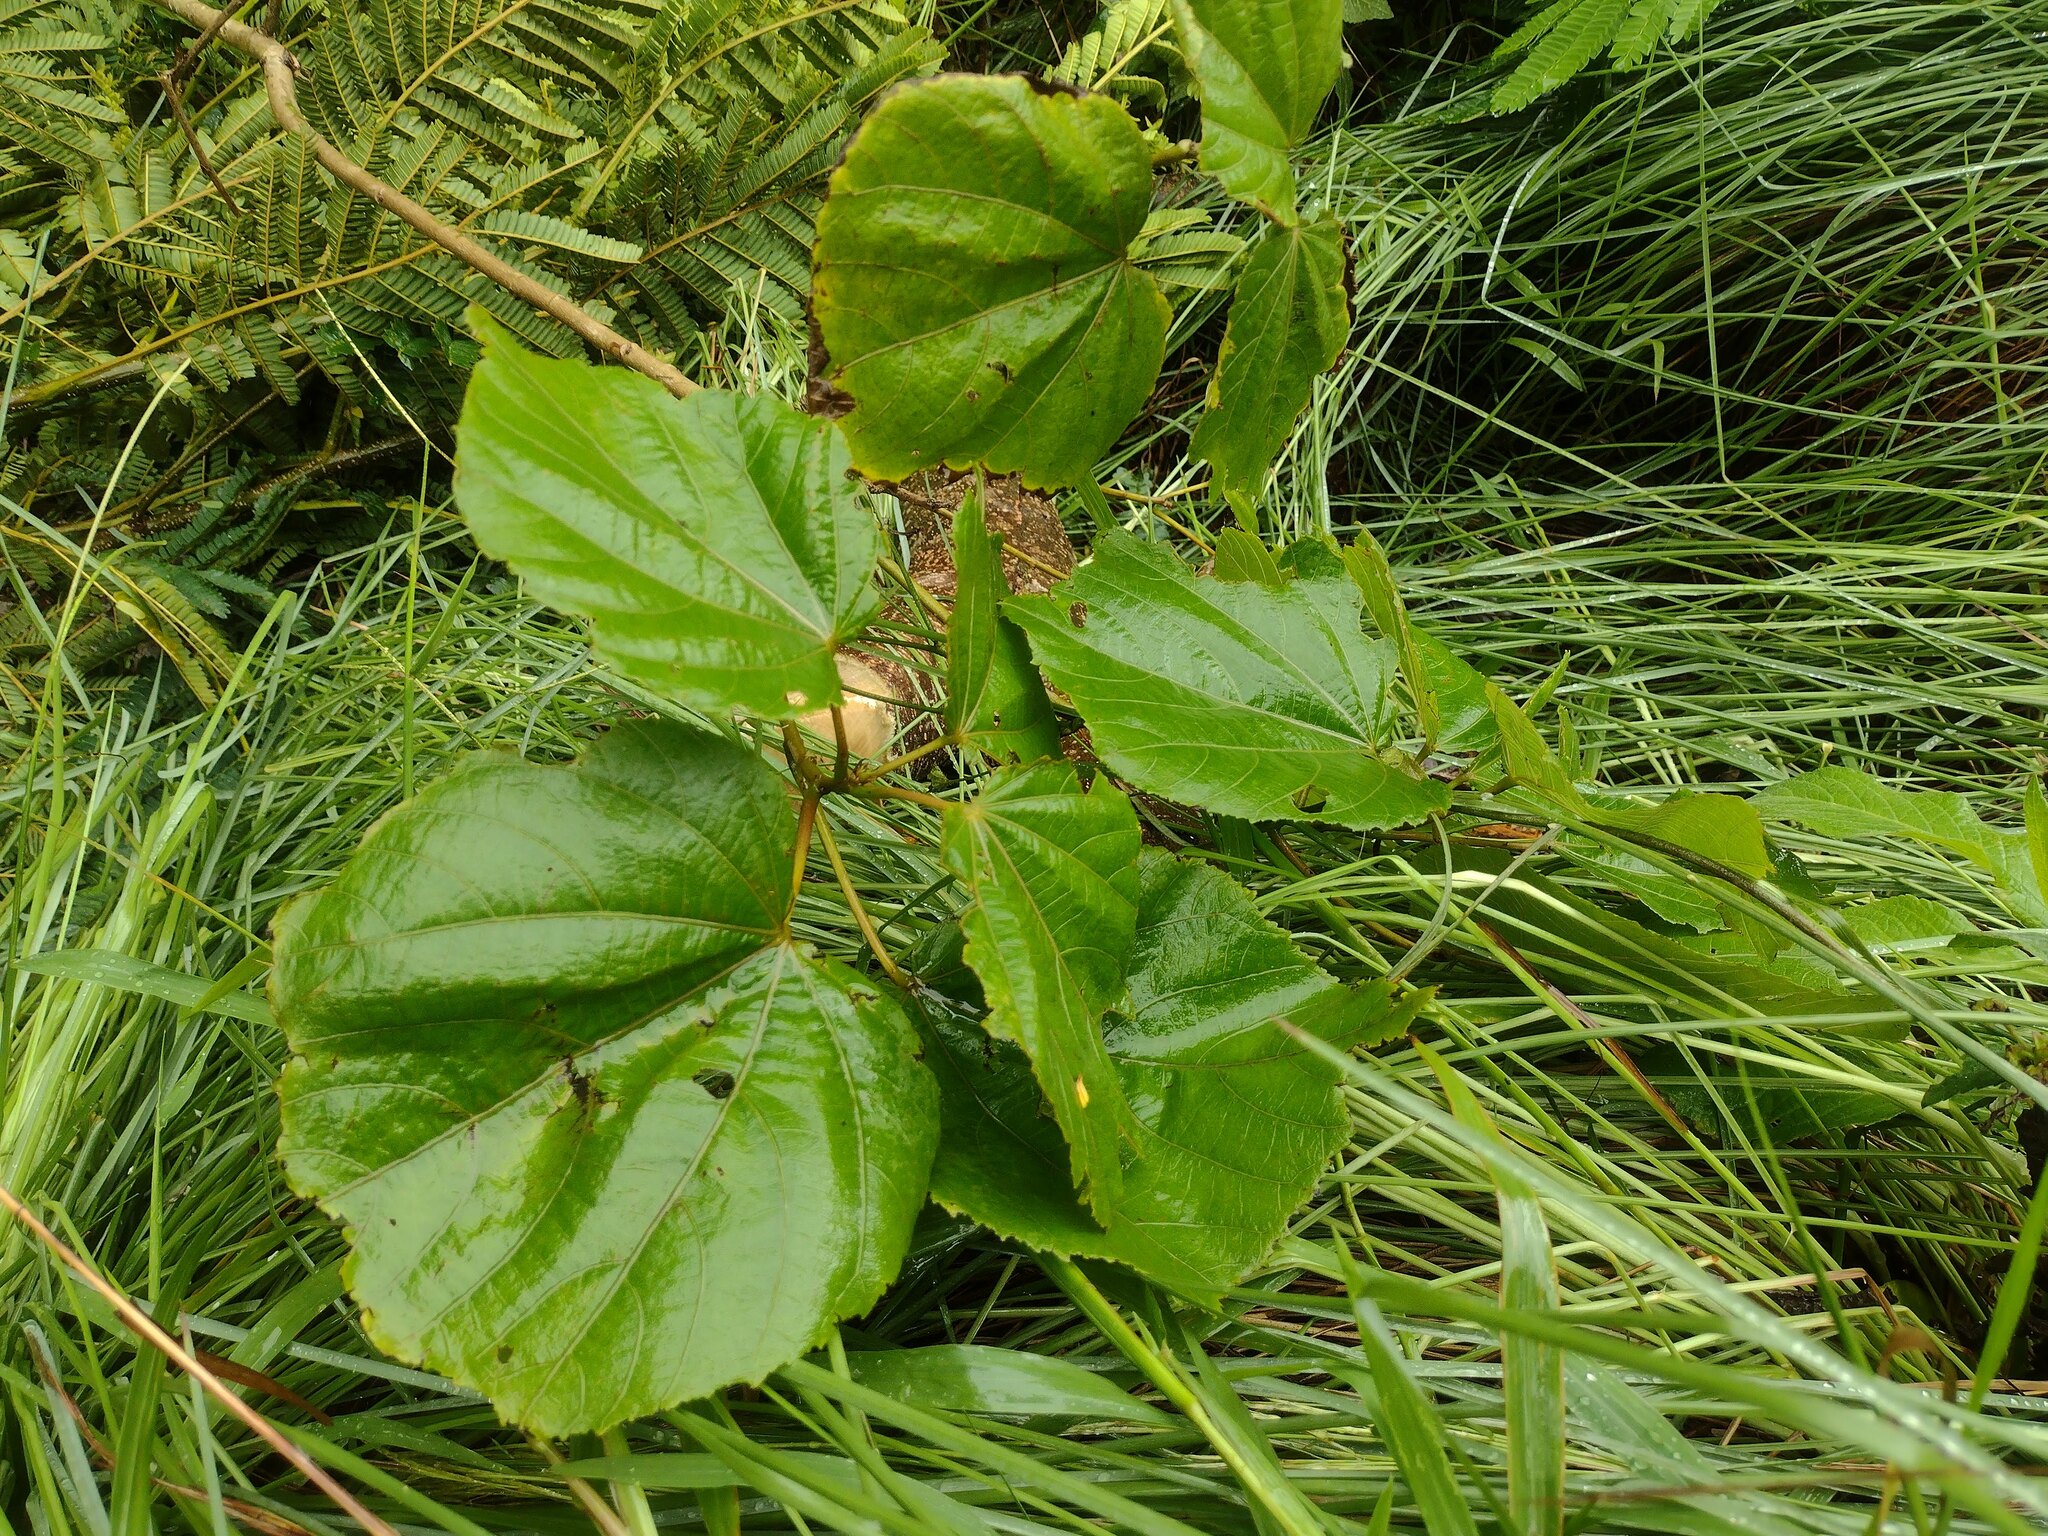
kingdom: Plantae
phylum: Tracheophyta
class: Magnoliopsida
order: Malvales
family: Malvaceae
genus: Heliocarpus
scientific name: Heliocarpus americanus
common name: White moho
